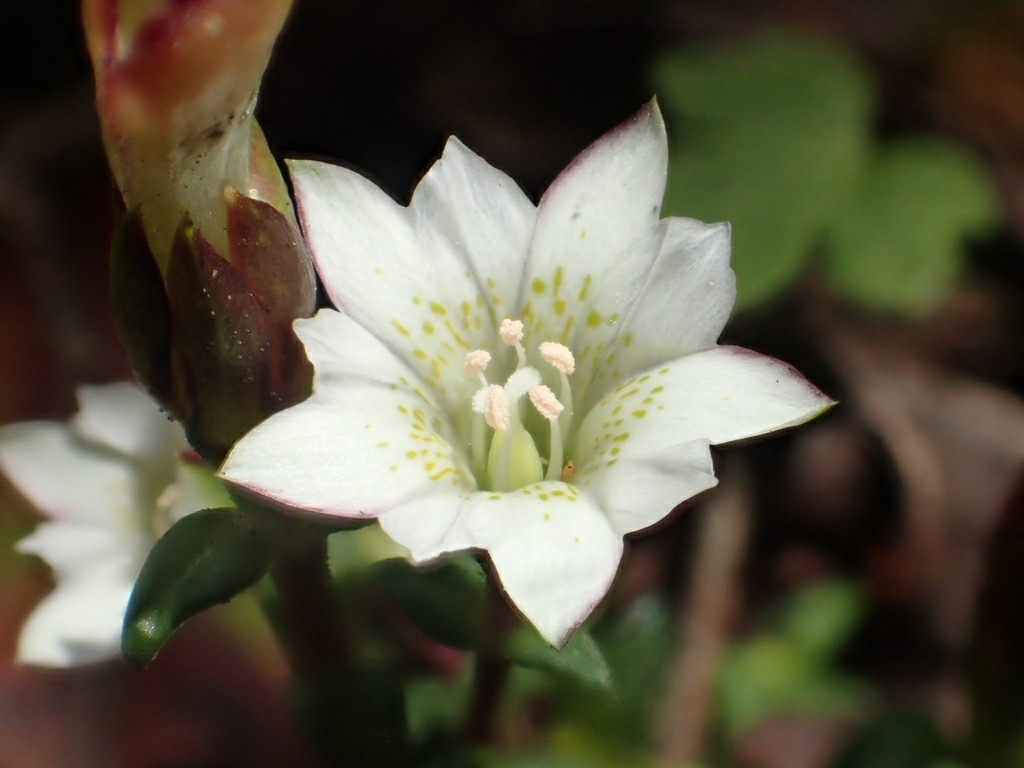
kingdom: Plantae
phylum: Tracheophyta
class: Magnoliopsida
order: Gentianales
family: Gentianaceae
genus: Gentiana
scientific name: Gentiana flavomaculata
